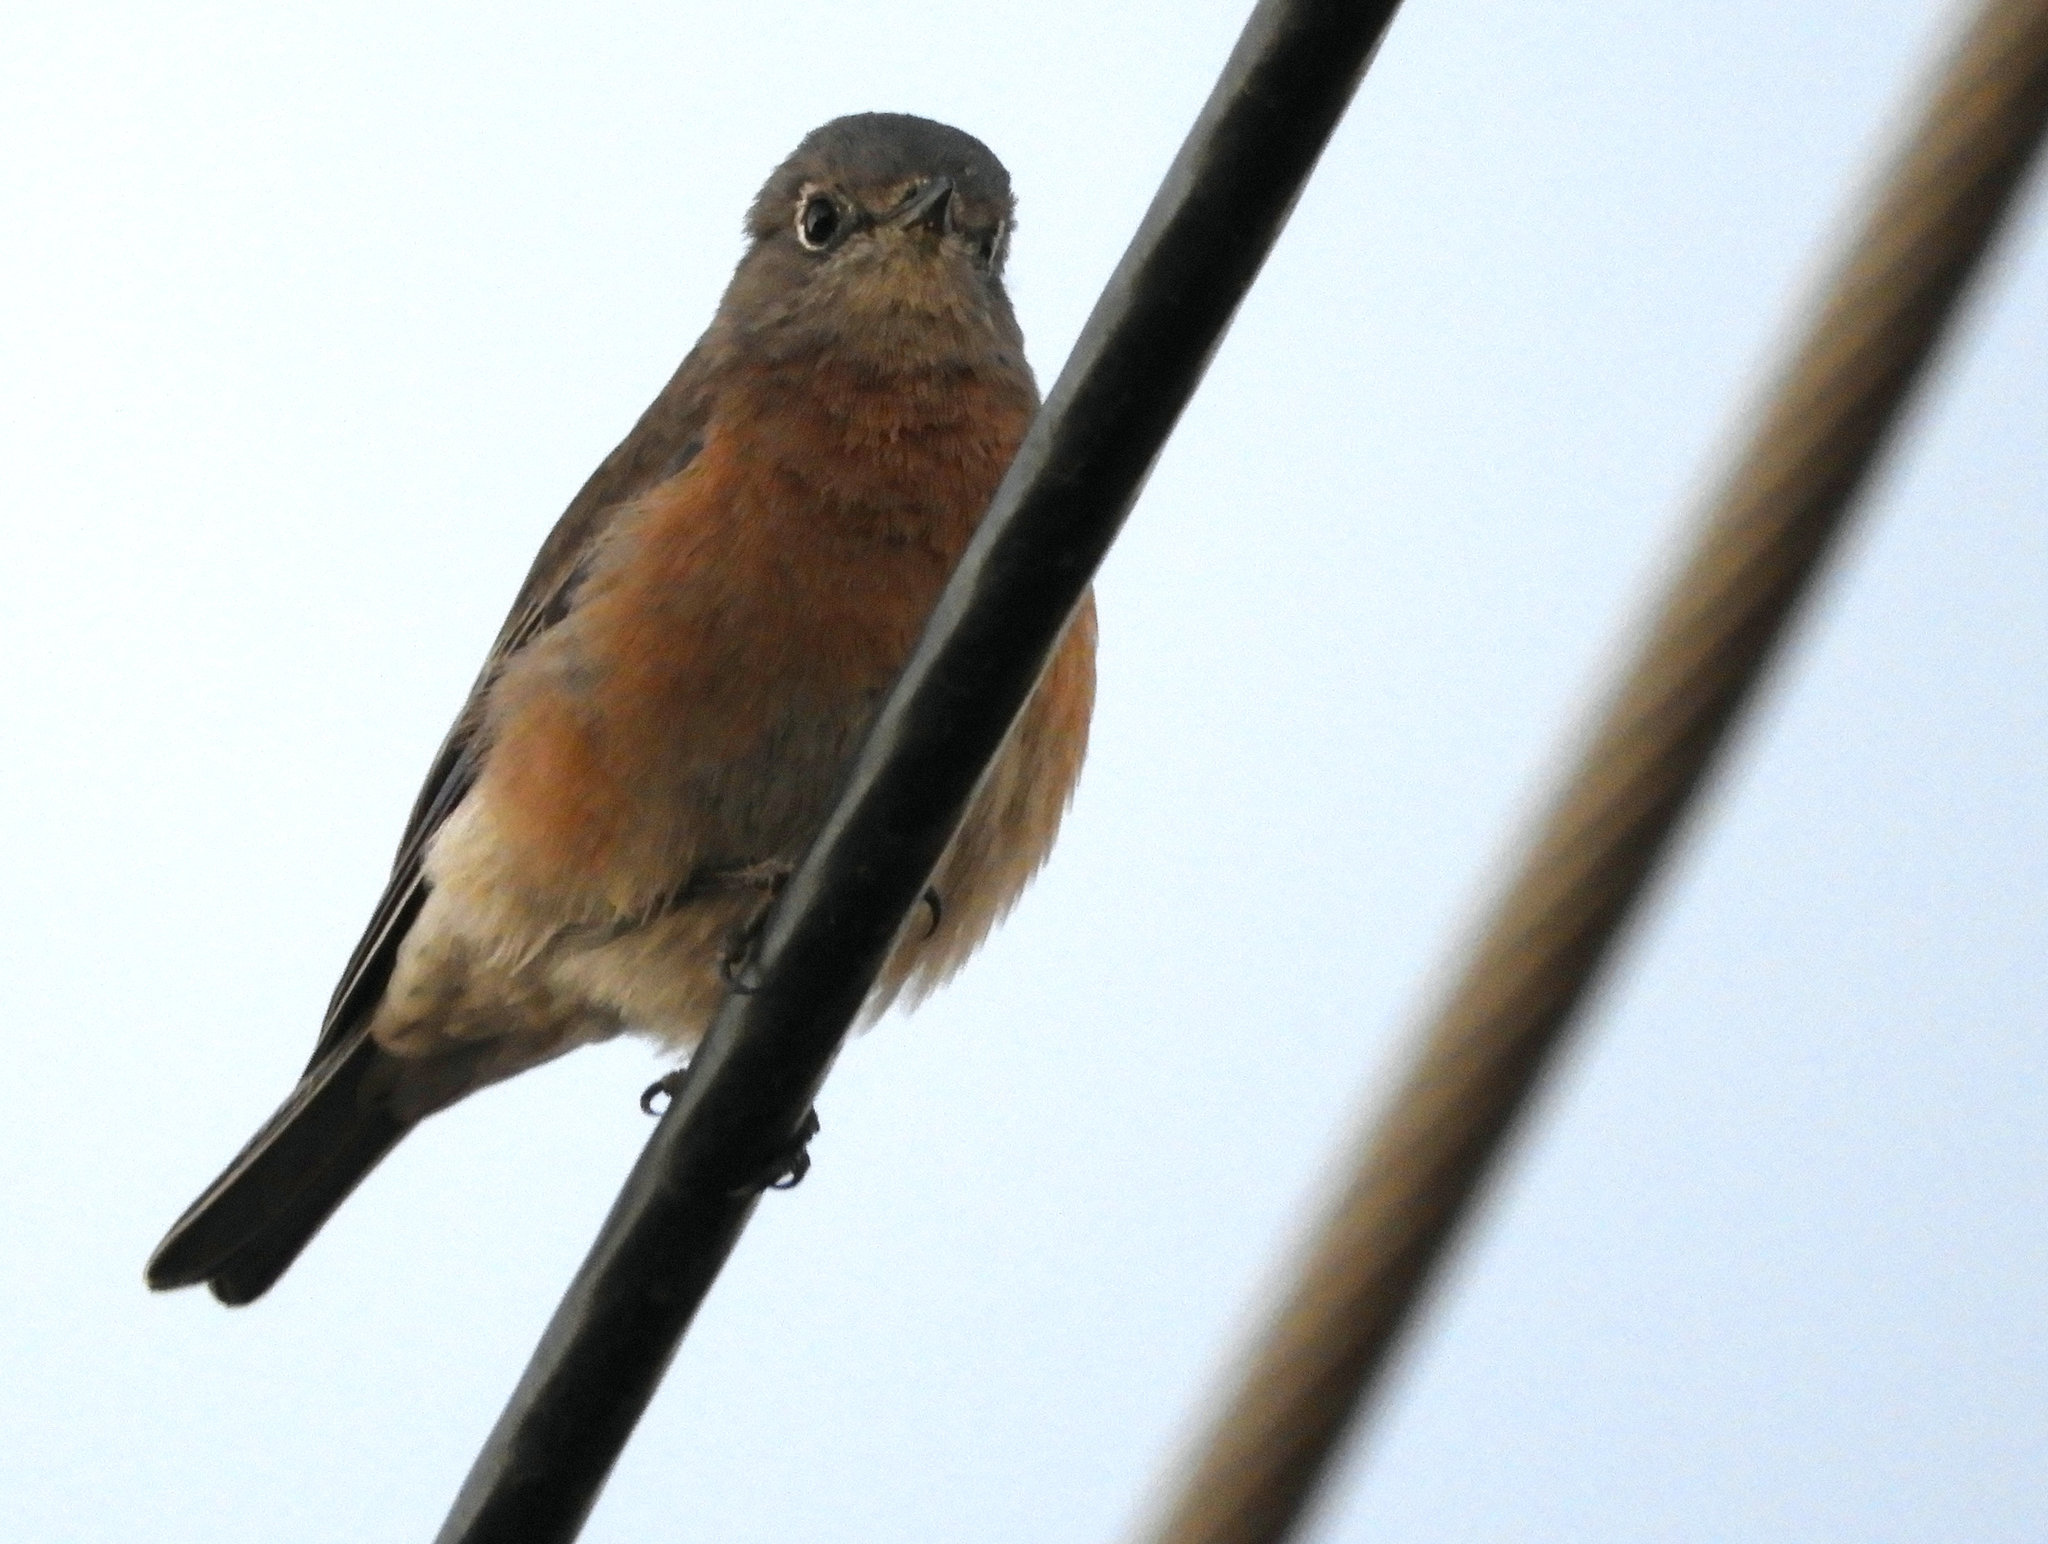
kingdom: Animalia
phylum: Chordata
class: Aves
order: Passeriformes
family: Turdidae
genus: Sialia
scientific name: Sialia mexicana
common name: Western bluebird
